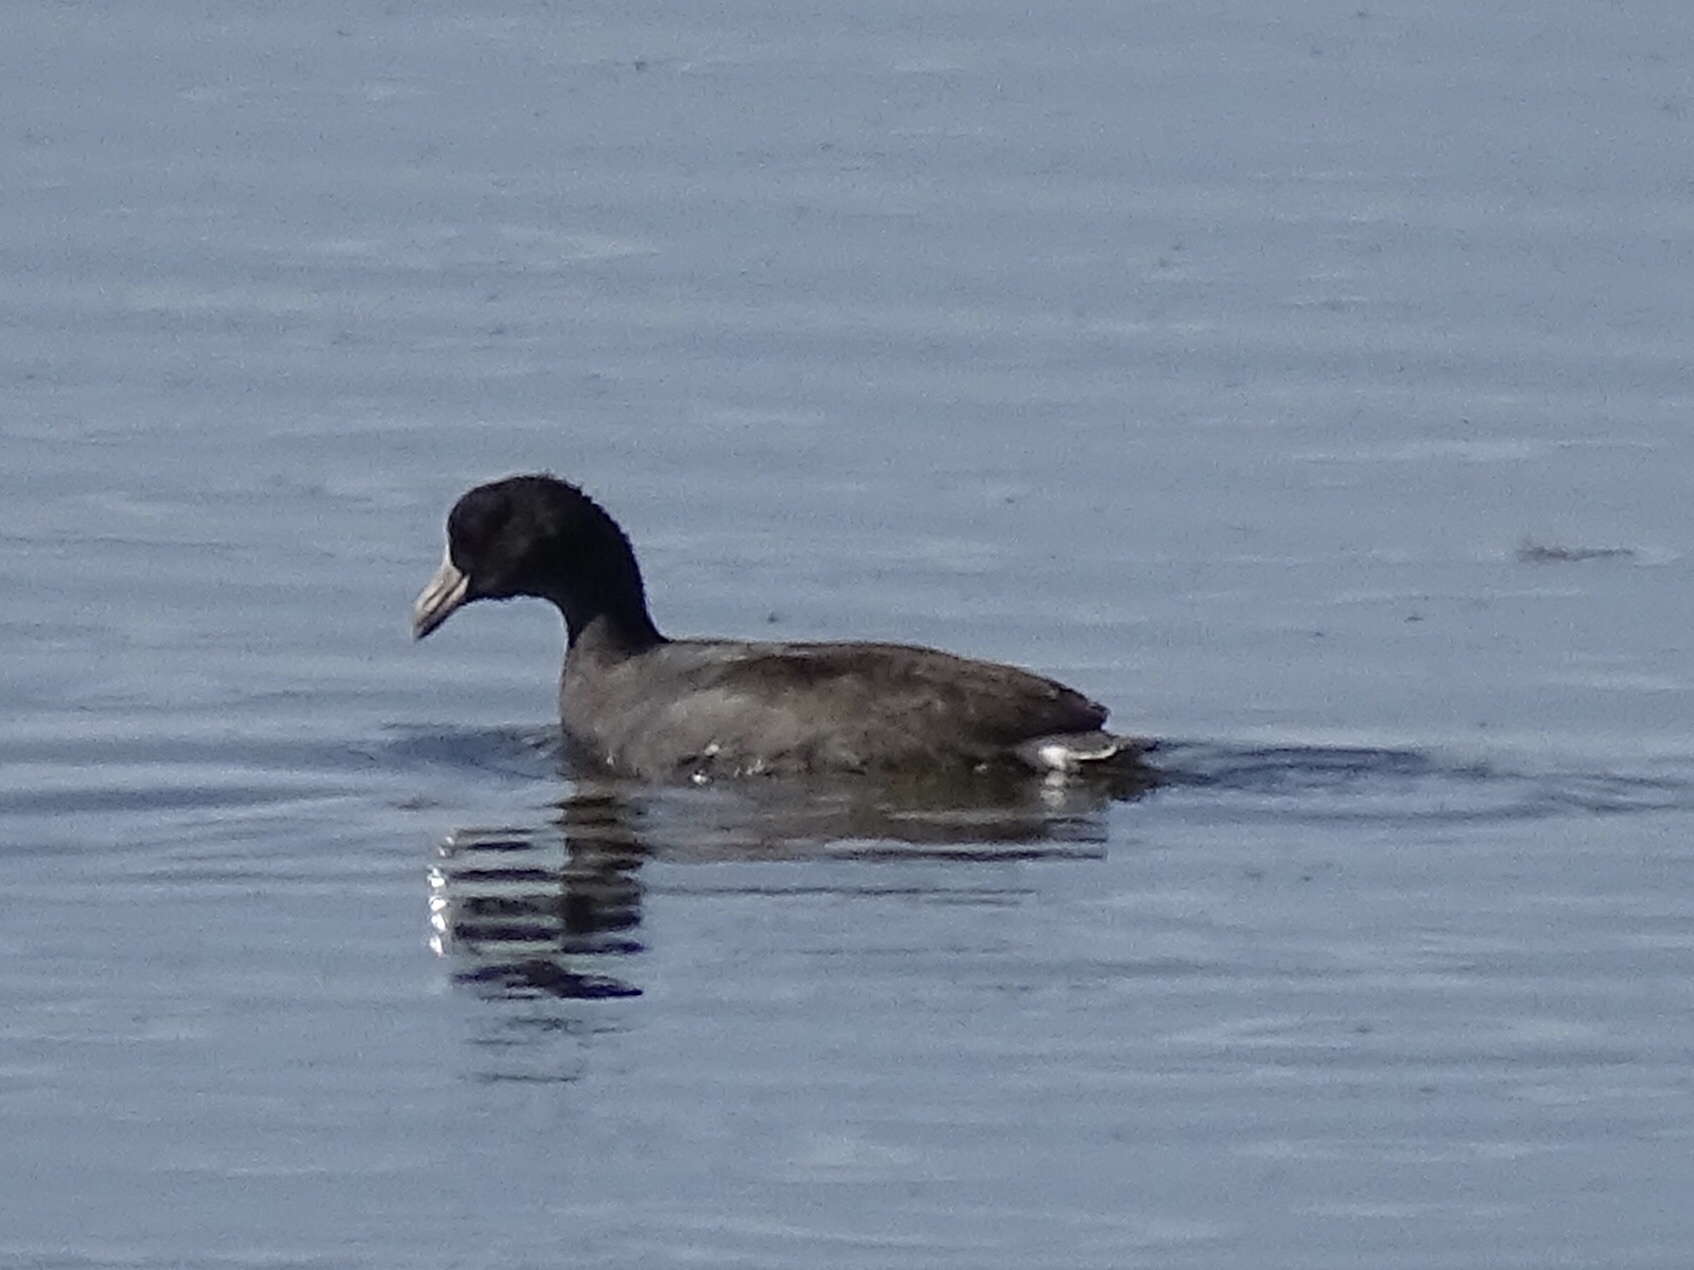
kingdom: Animalia
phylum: Chordata
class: Aves
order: Gruiformes
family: Rallidae
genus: Fulica
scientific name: Fulica americana
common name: American coot
